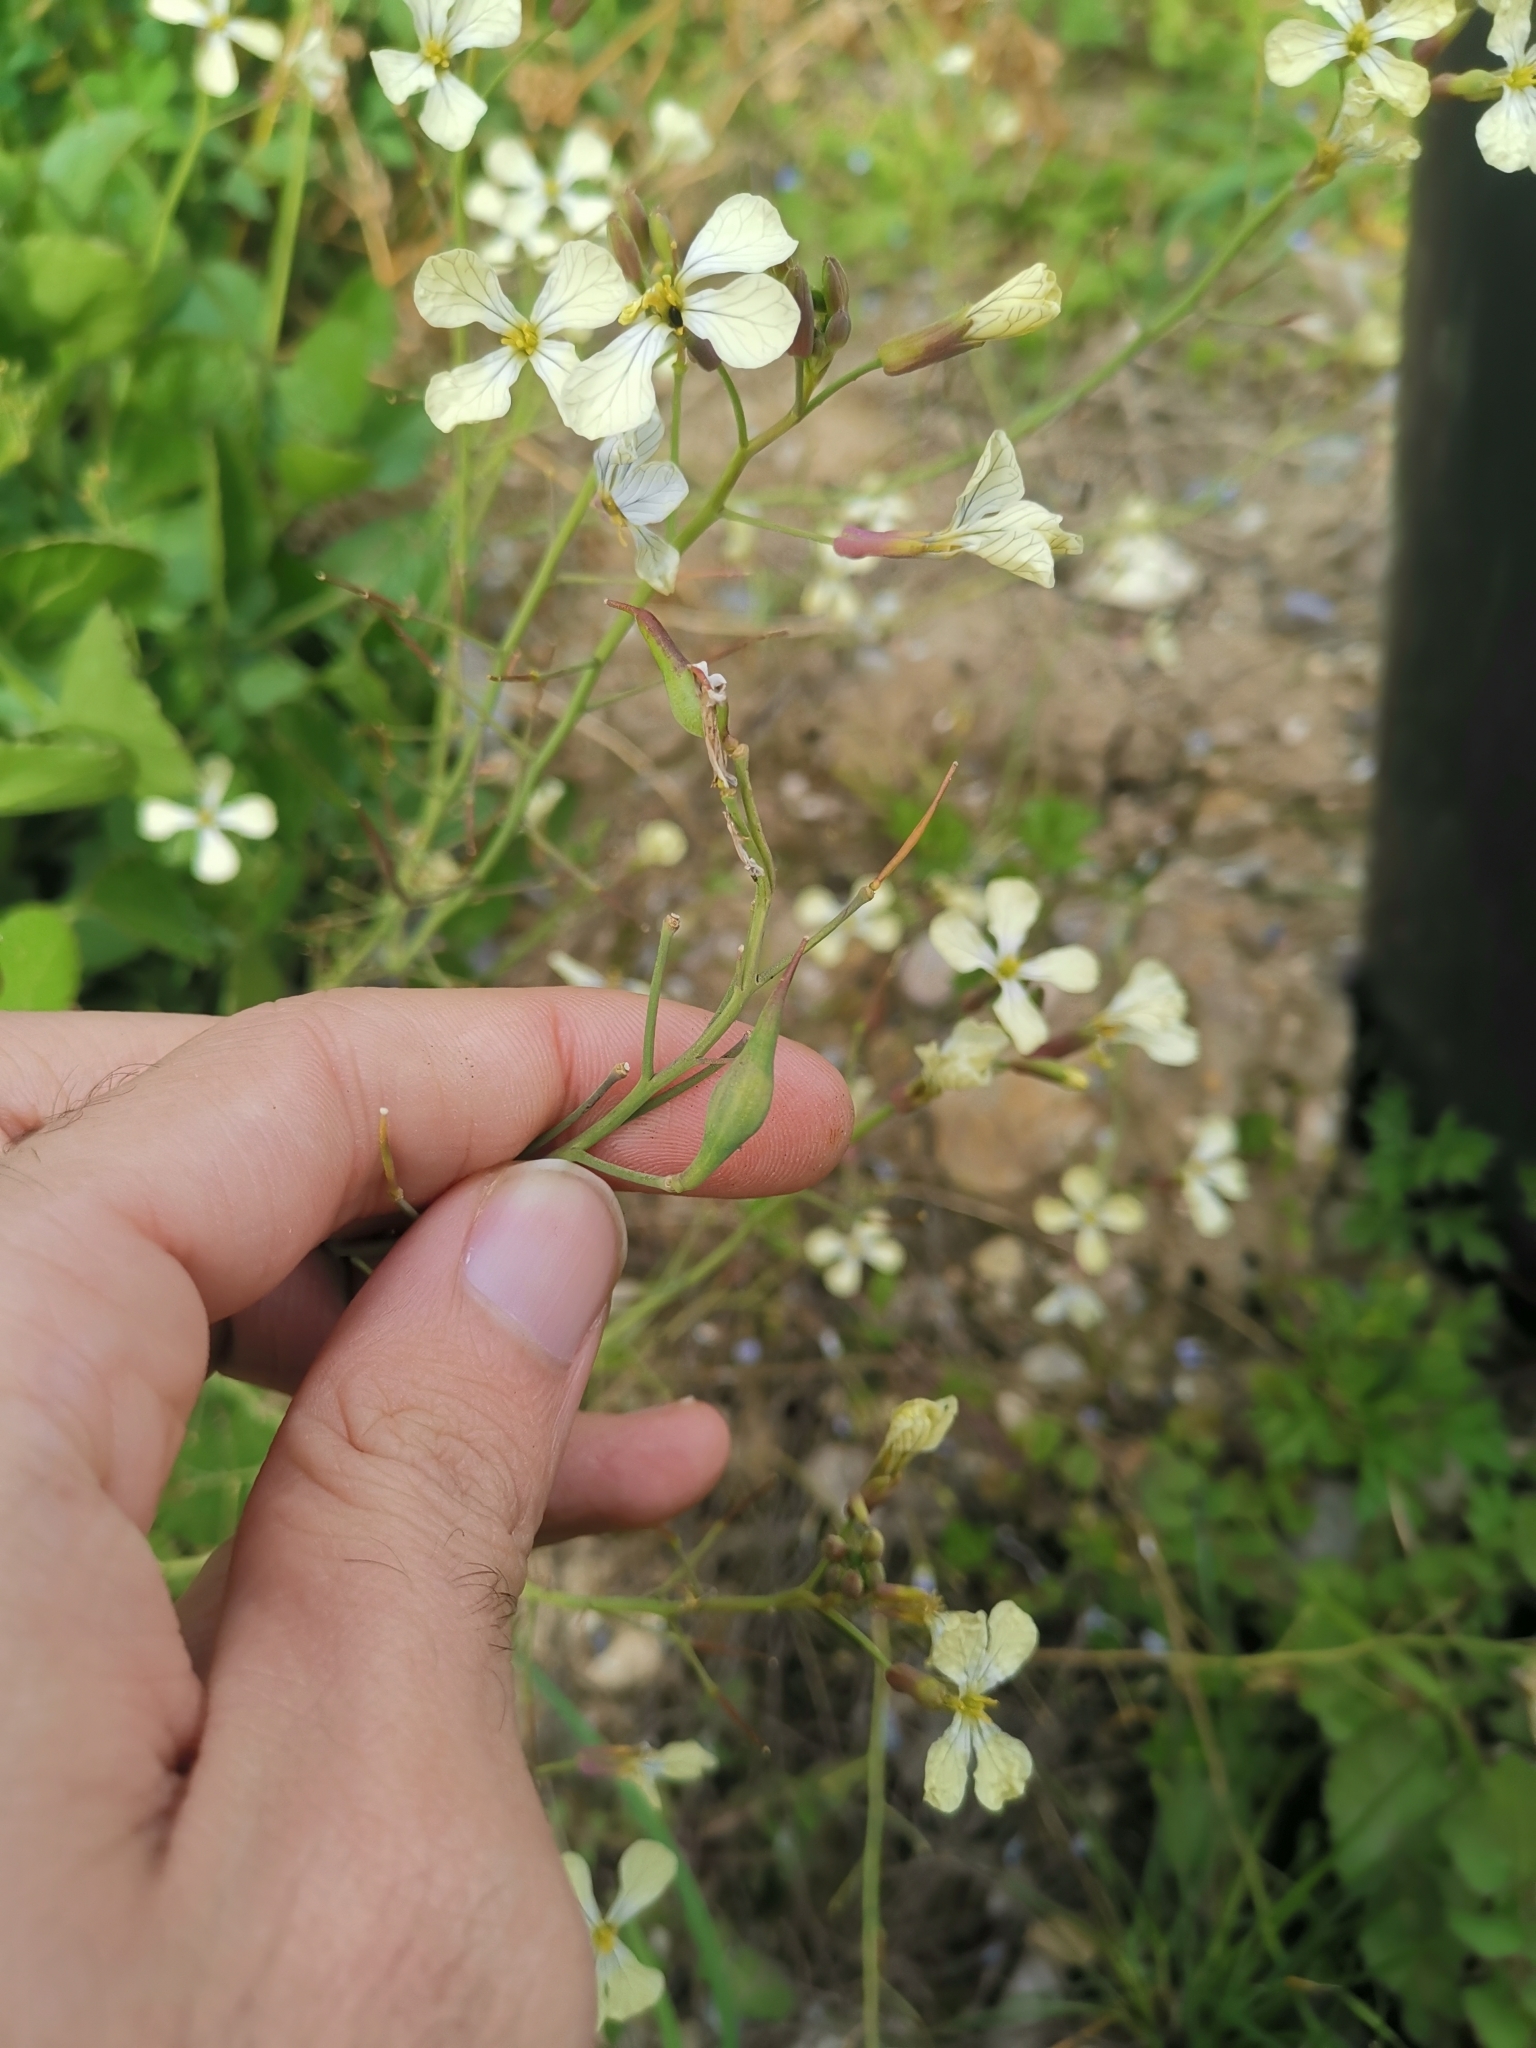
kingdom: Plantae
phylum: Tracheophyta
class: Magnoliopsida
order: Brassicales
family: Brassicaceae
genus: Raphanus
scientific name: Raphanus raphanistrum
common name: Wild radish
